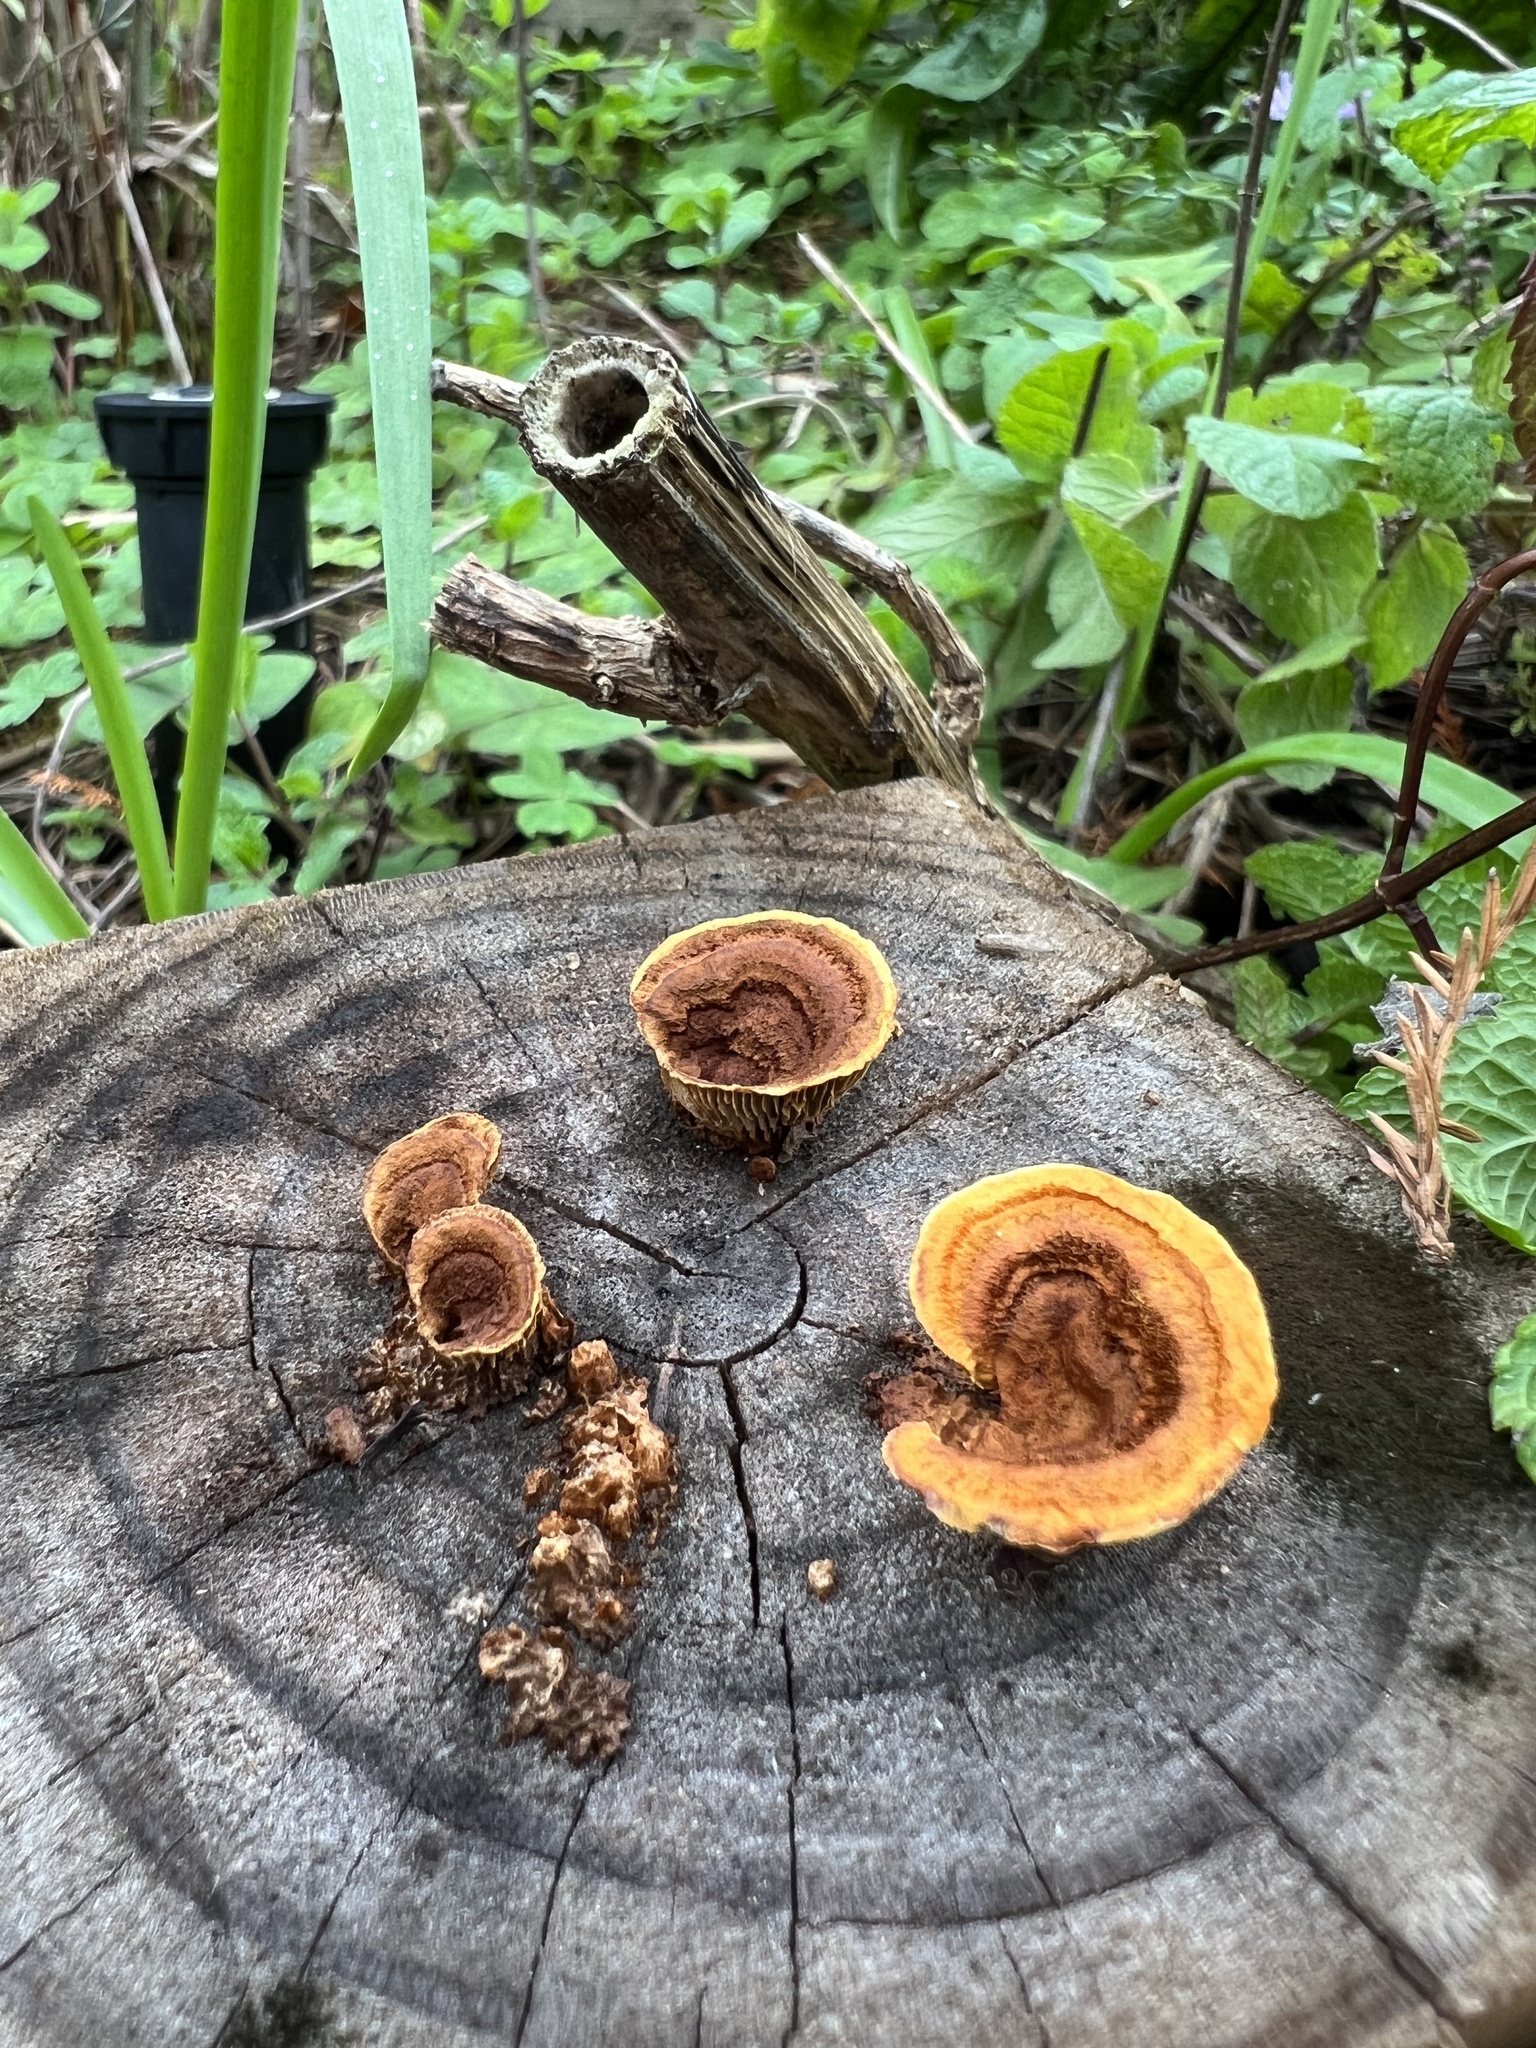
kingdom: Fungi
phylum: Basidiomycota
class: Agaricomycetes
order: Gloeophyllales
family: Gloeophyllaceae
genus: Gloeophyllum
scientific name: Gloeophyllum sepiarium
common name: Conifer mazegill
